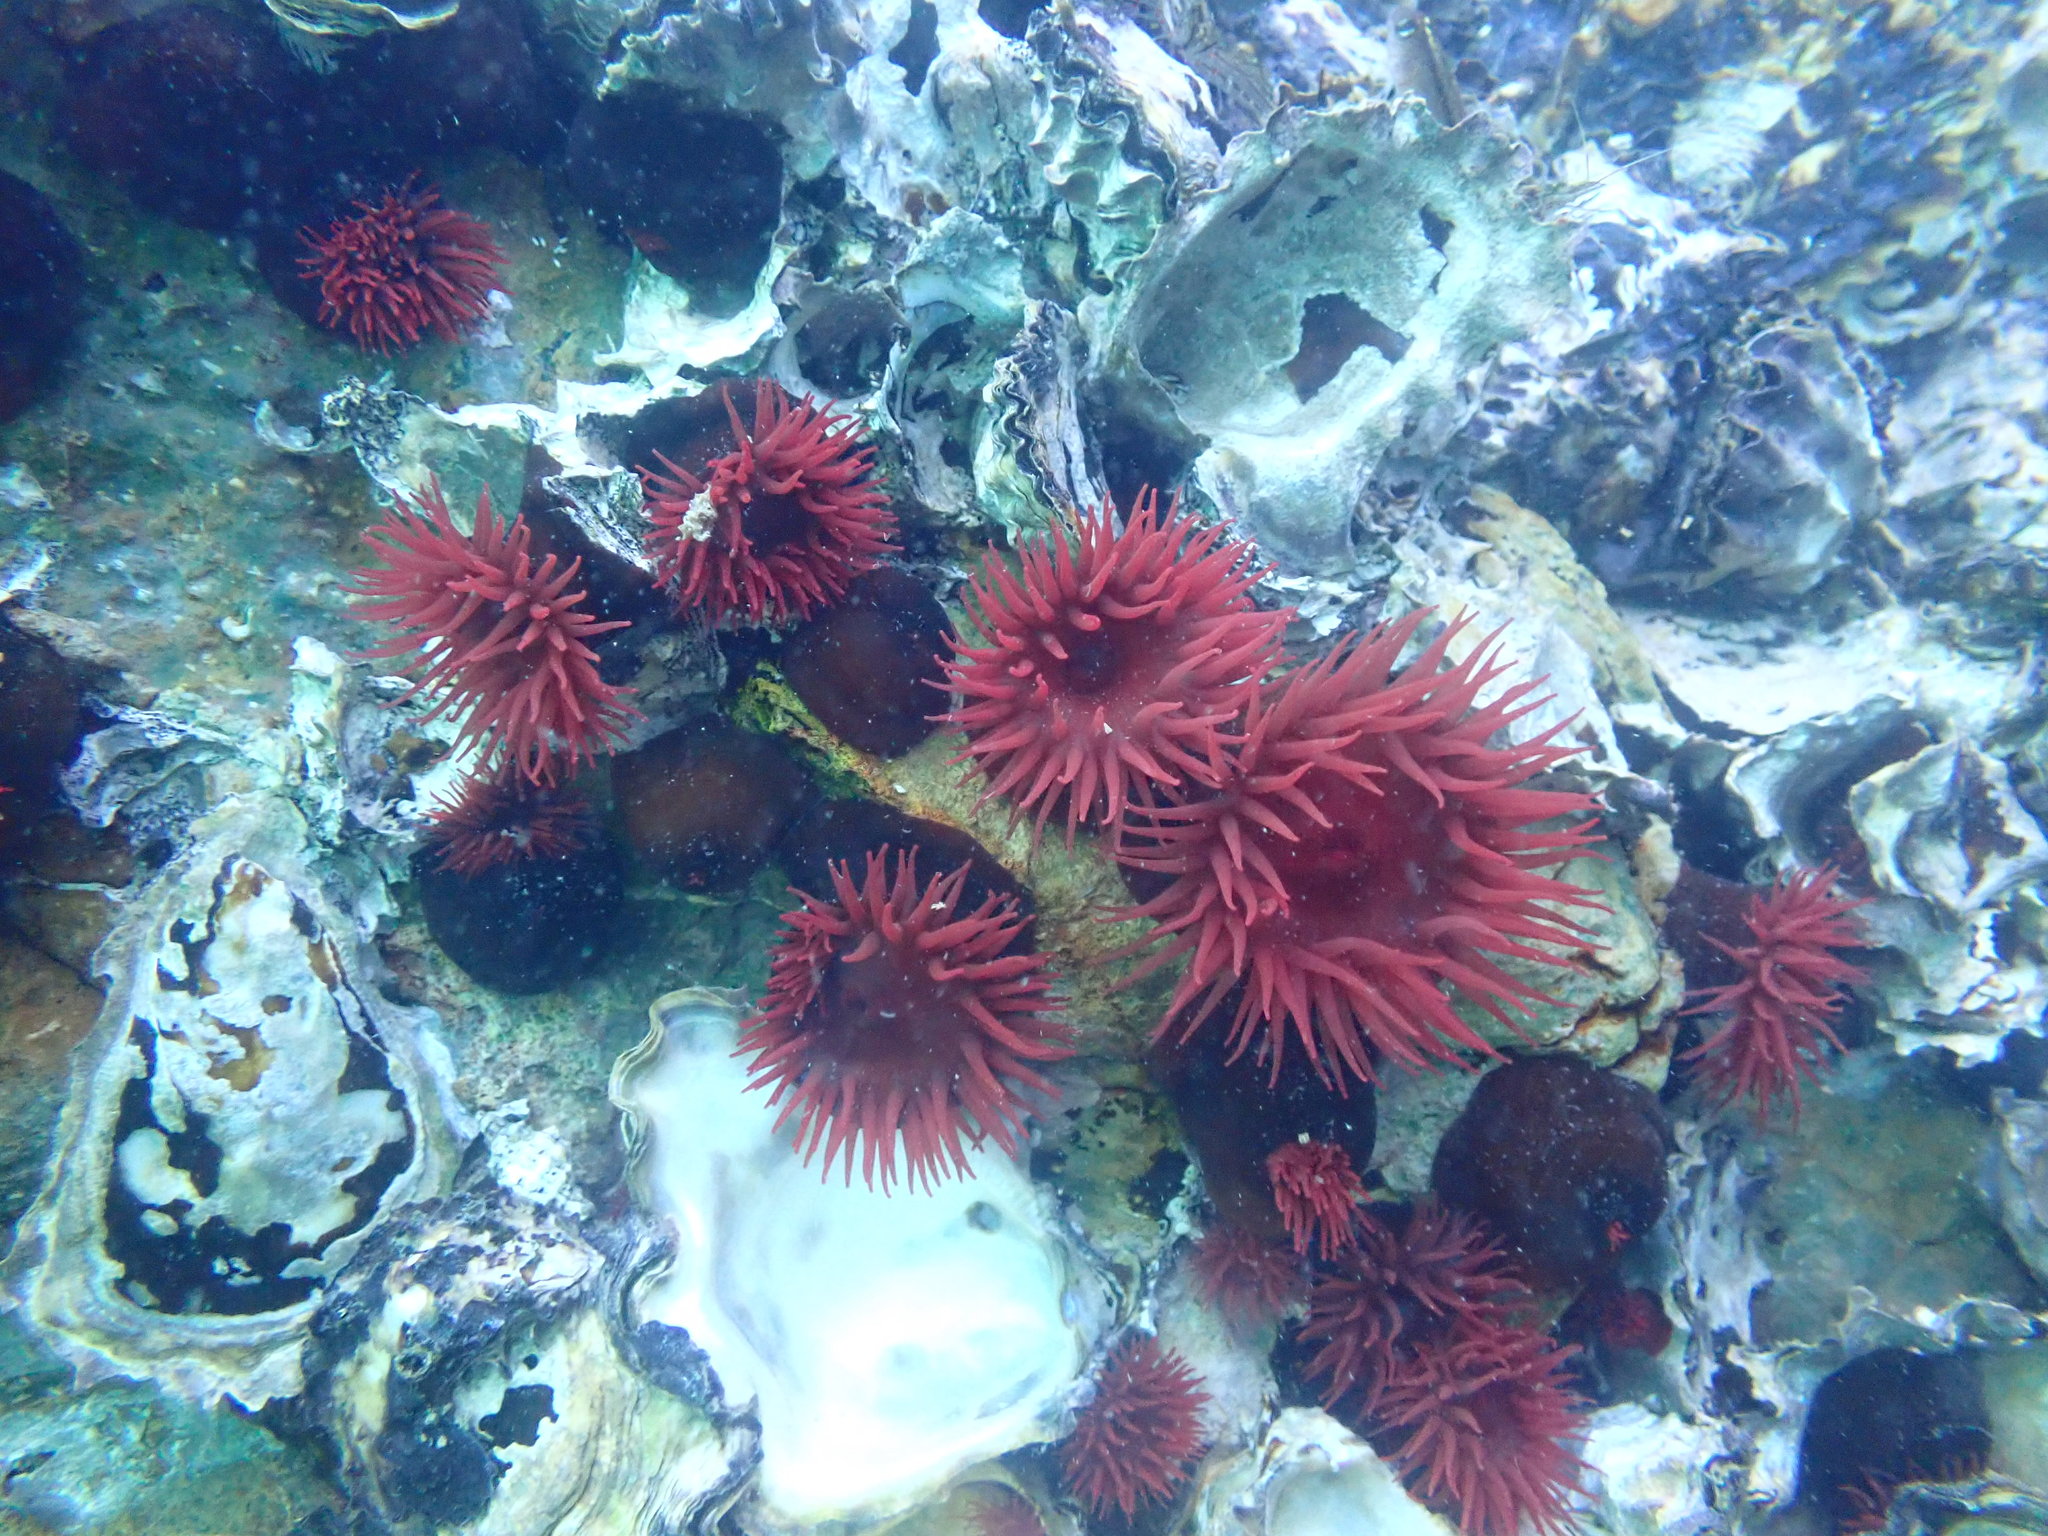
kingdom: Animalia
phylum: Cnidaria
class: Anthozoa
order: Actiniaria
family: Actiniidae
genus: Actinia
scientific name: Actinia tenebrosa
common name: Waratah anemone
